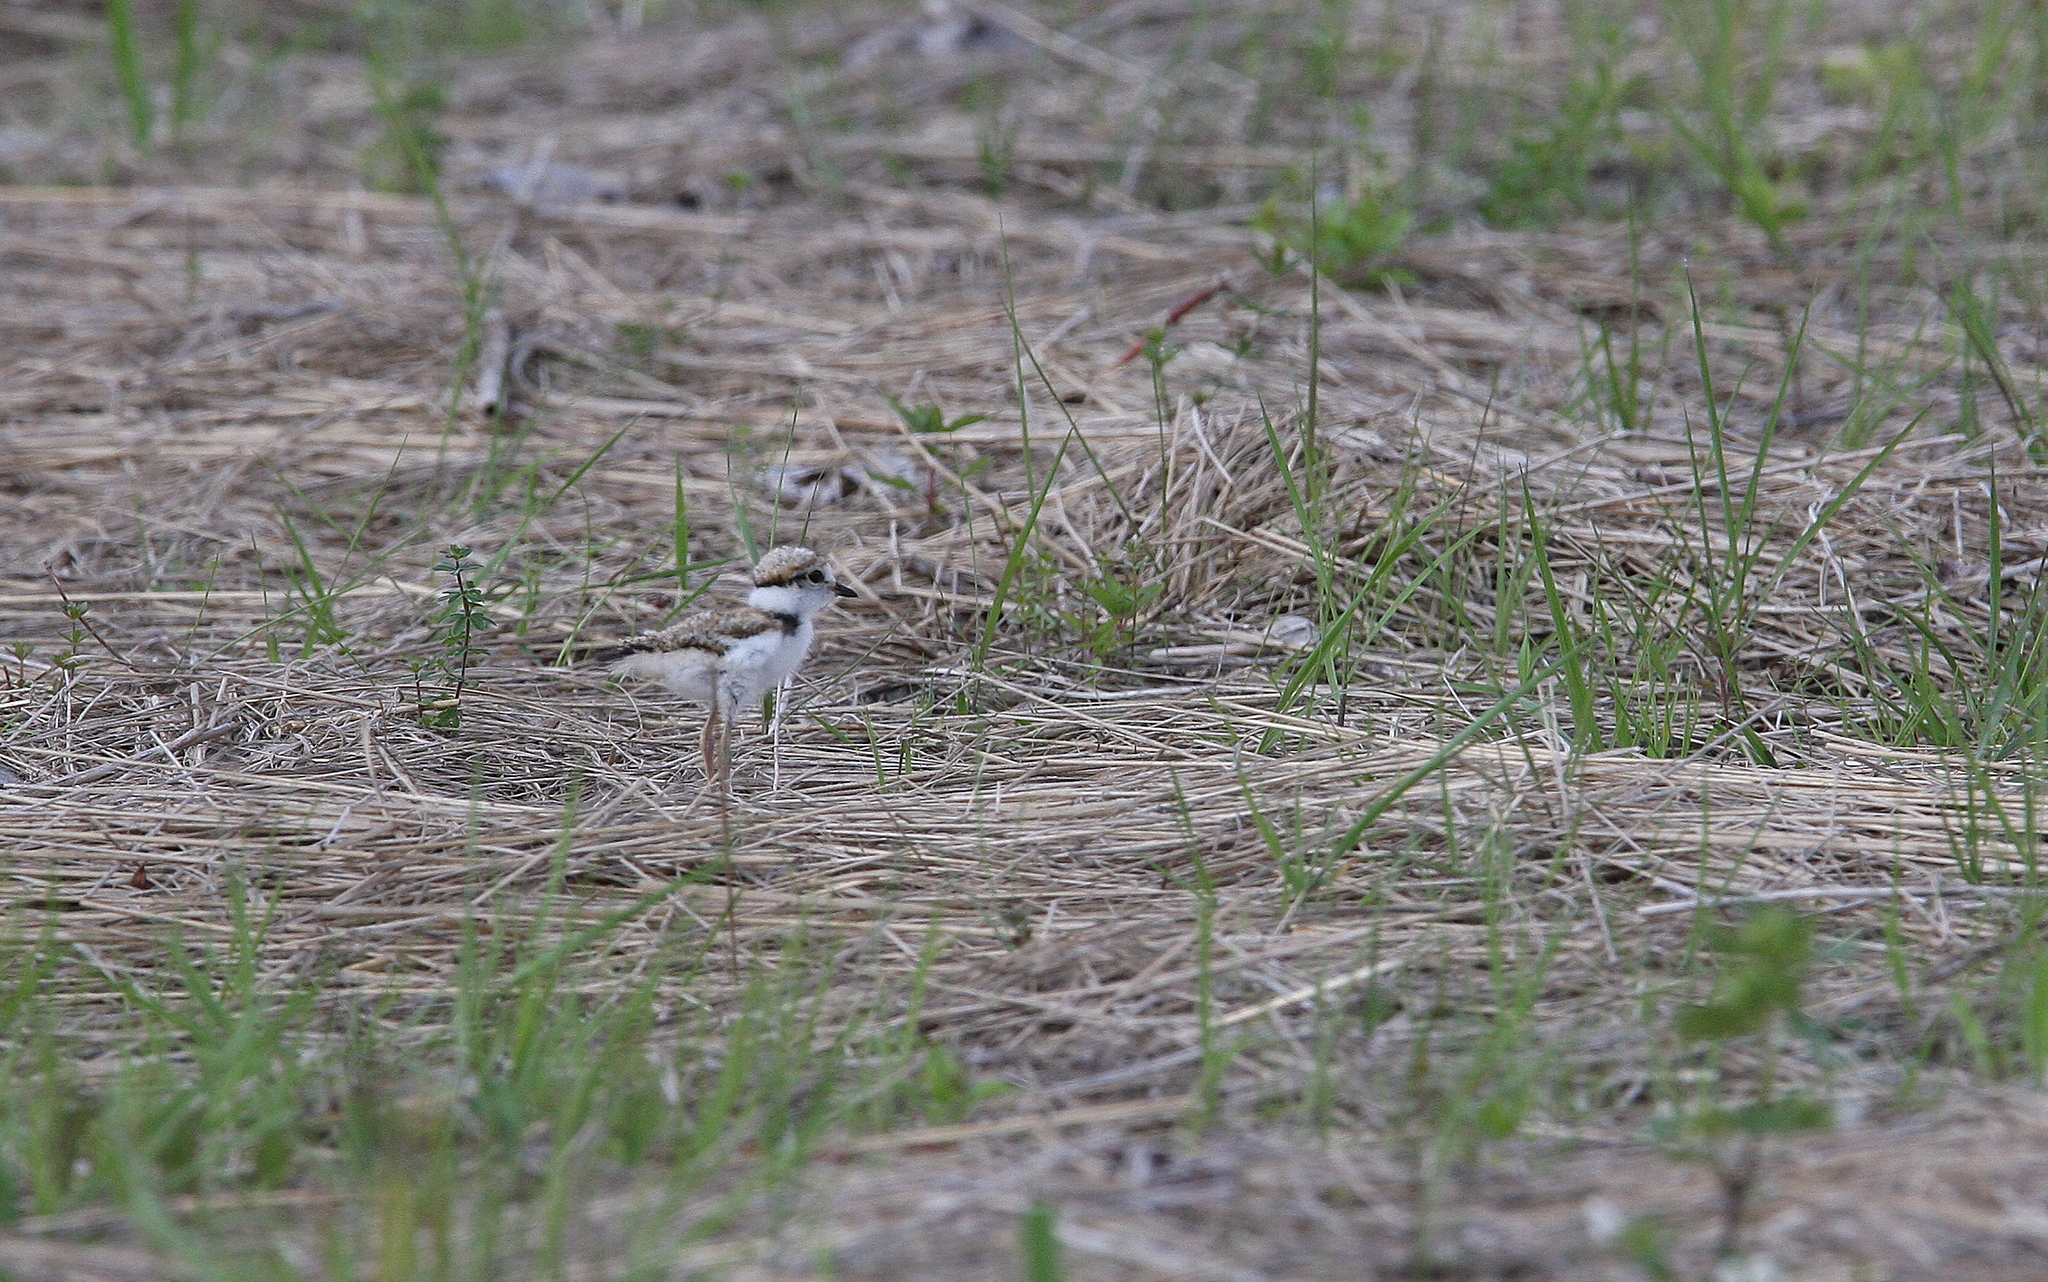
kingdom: Animalia
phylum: Chordata
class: Aves
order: Charadriiformes
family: Charadriidae
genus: Charadrius
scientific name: Charadrius dubius
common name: Little ringed plover
